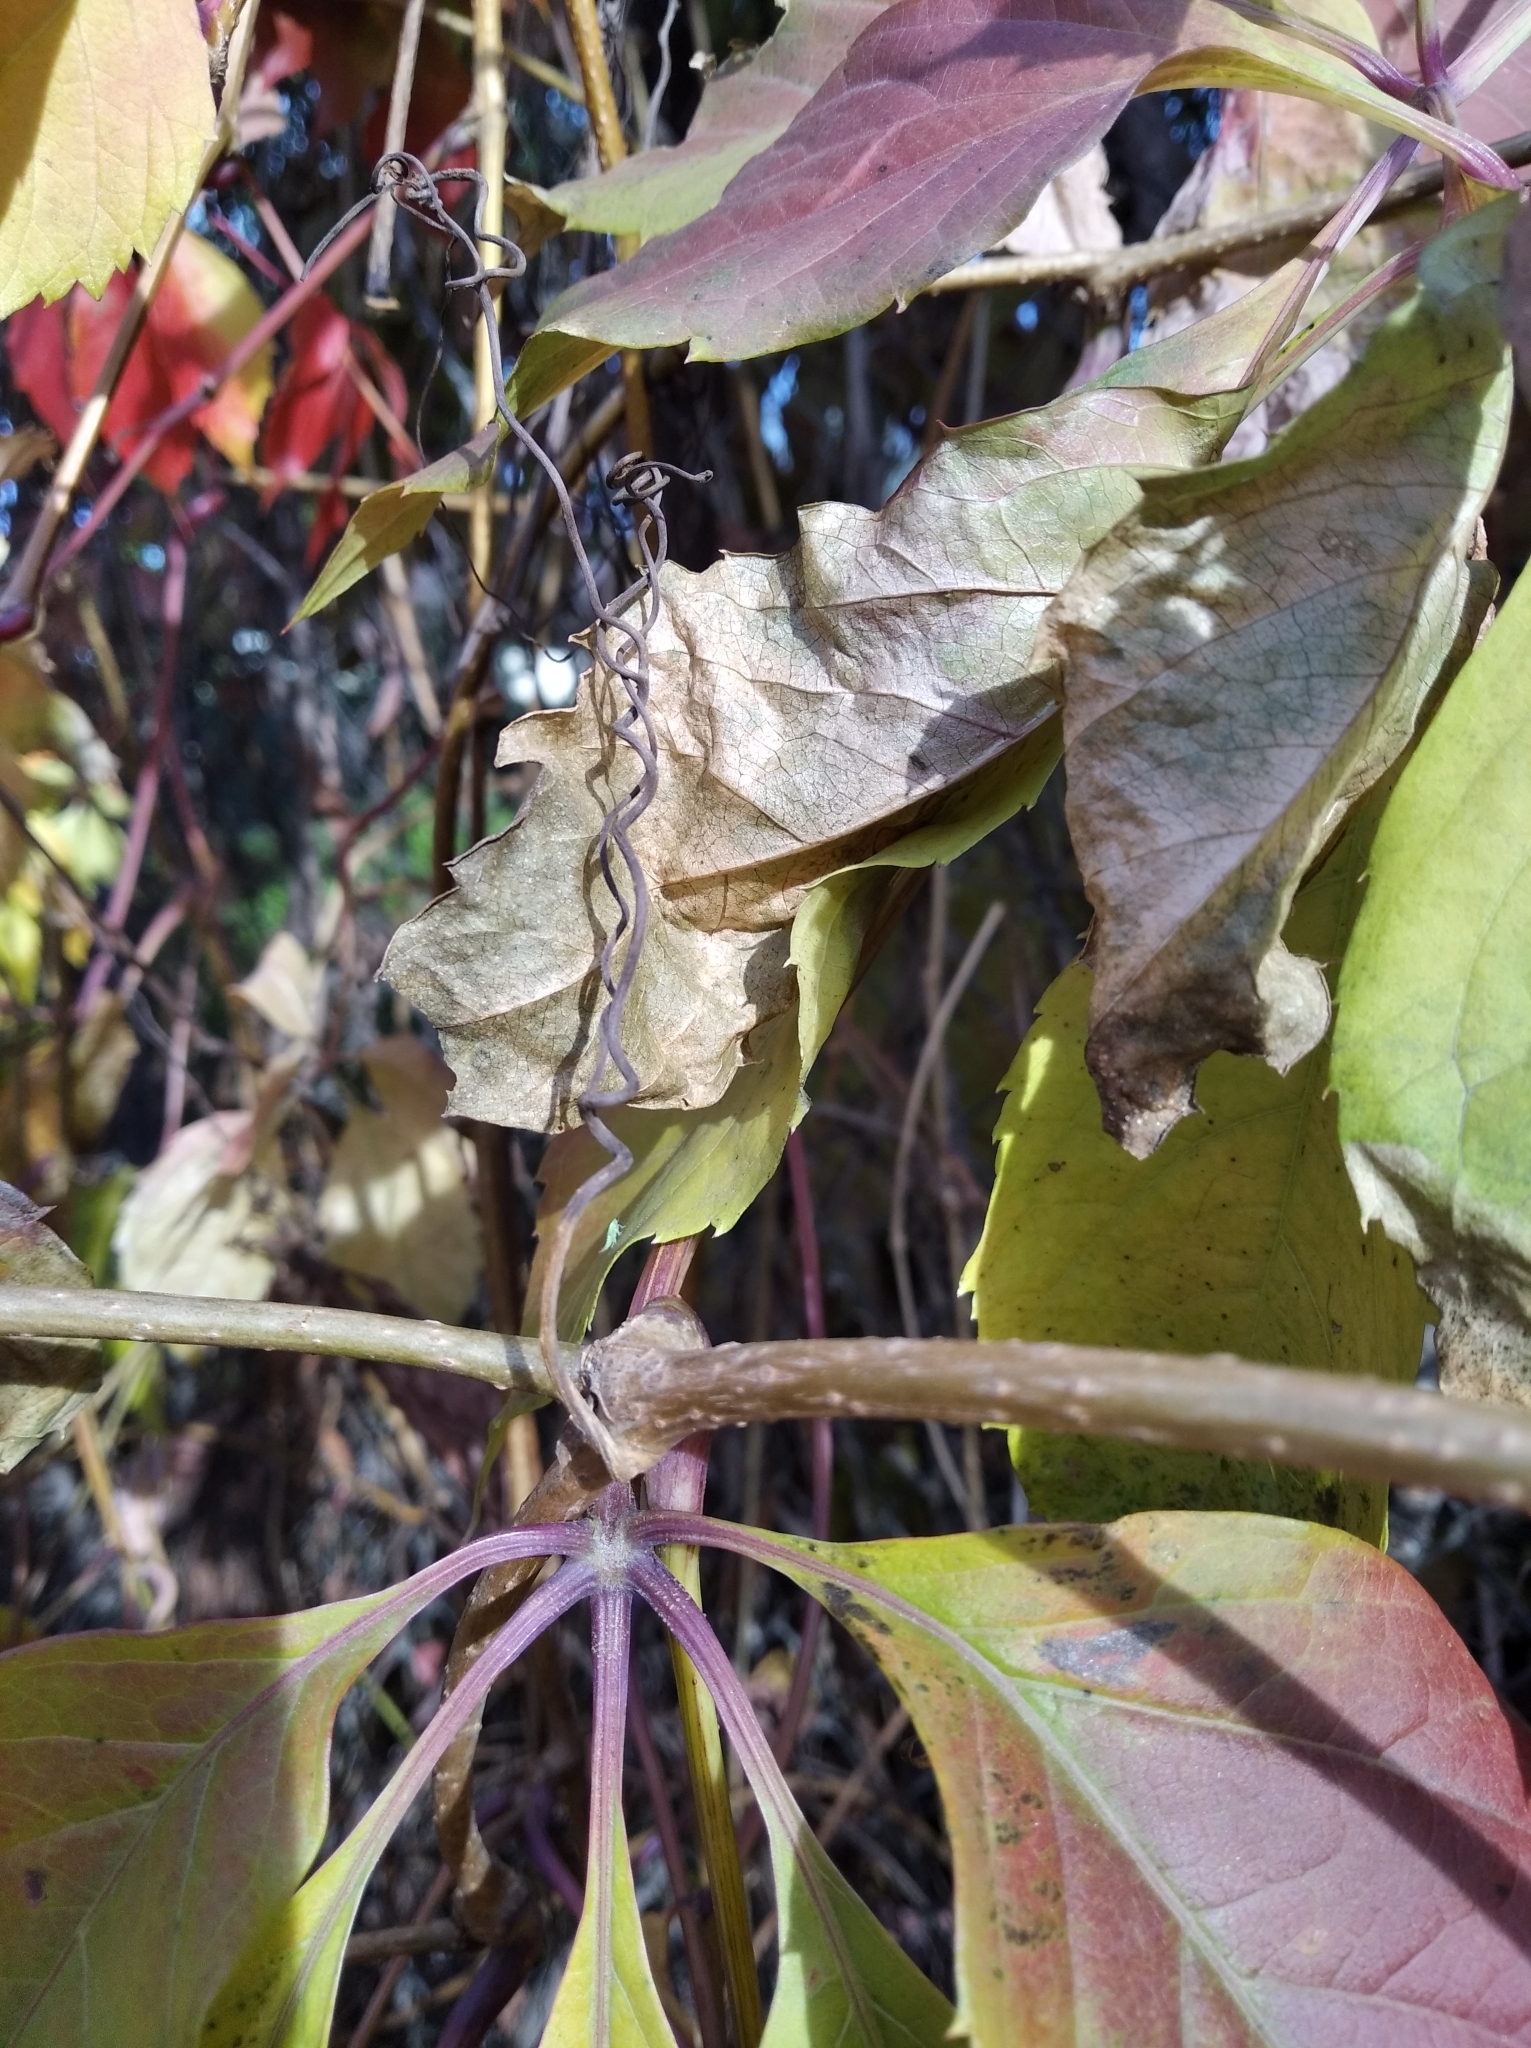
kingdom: Plantae
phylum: Tracheophyta
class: Magnoliopsida
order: Vitales
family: Vitaceae
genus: Parthenocissus
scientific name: Parthenocissus inserta
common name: False virginia-creeper
